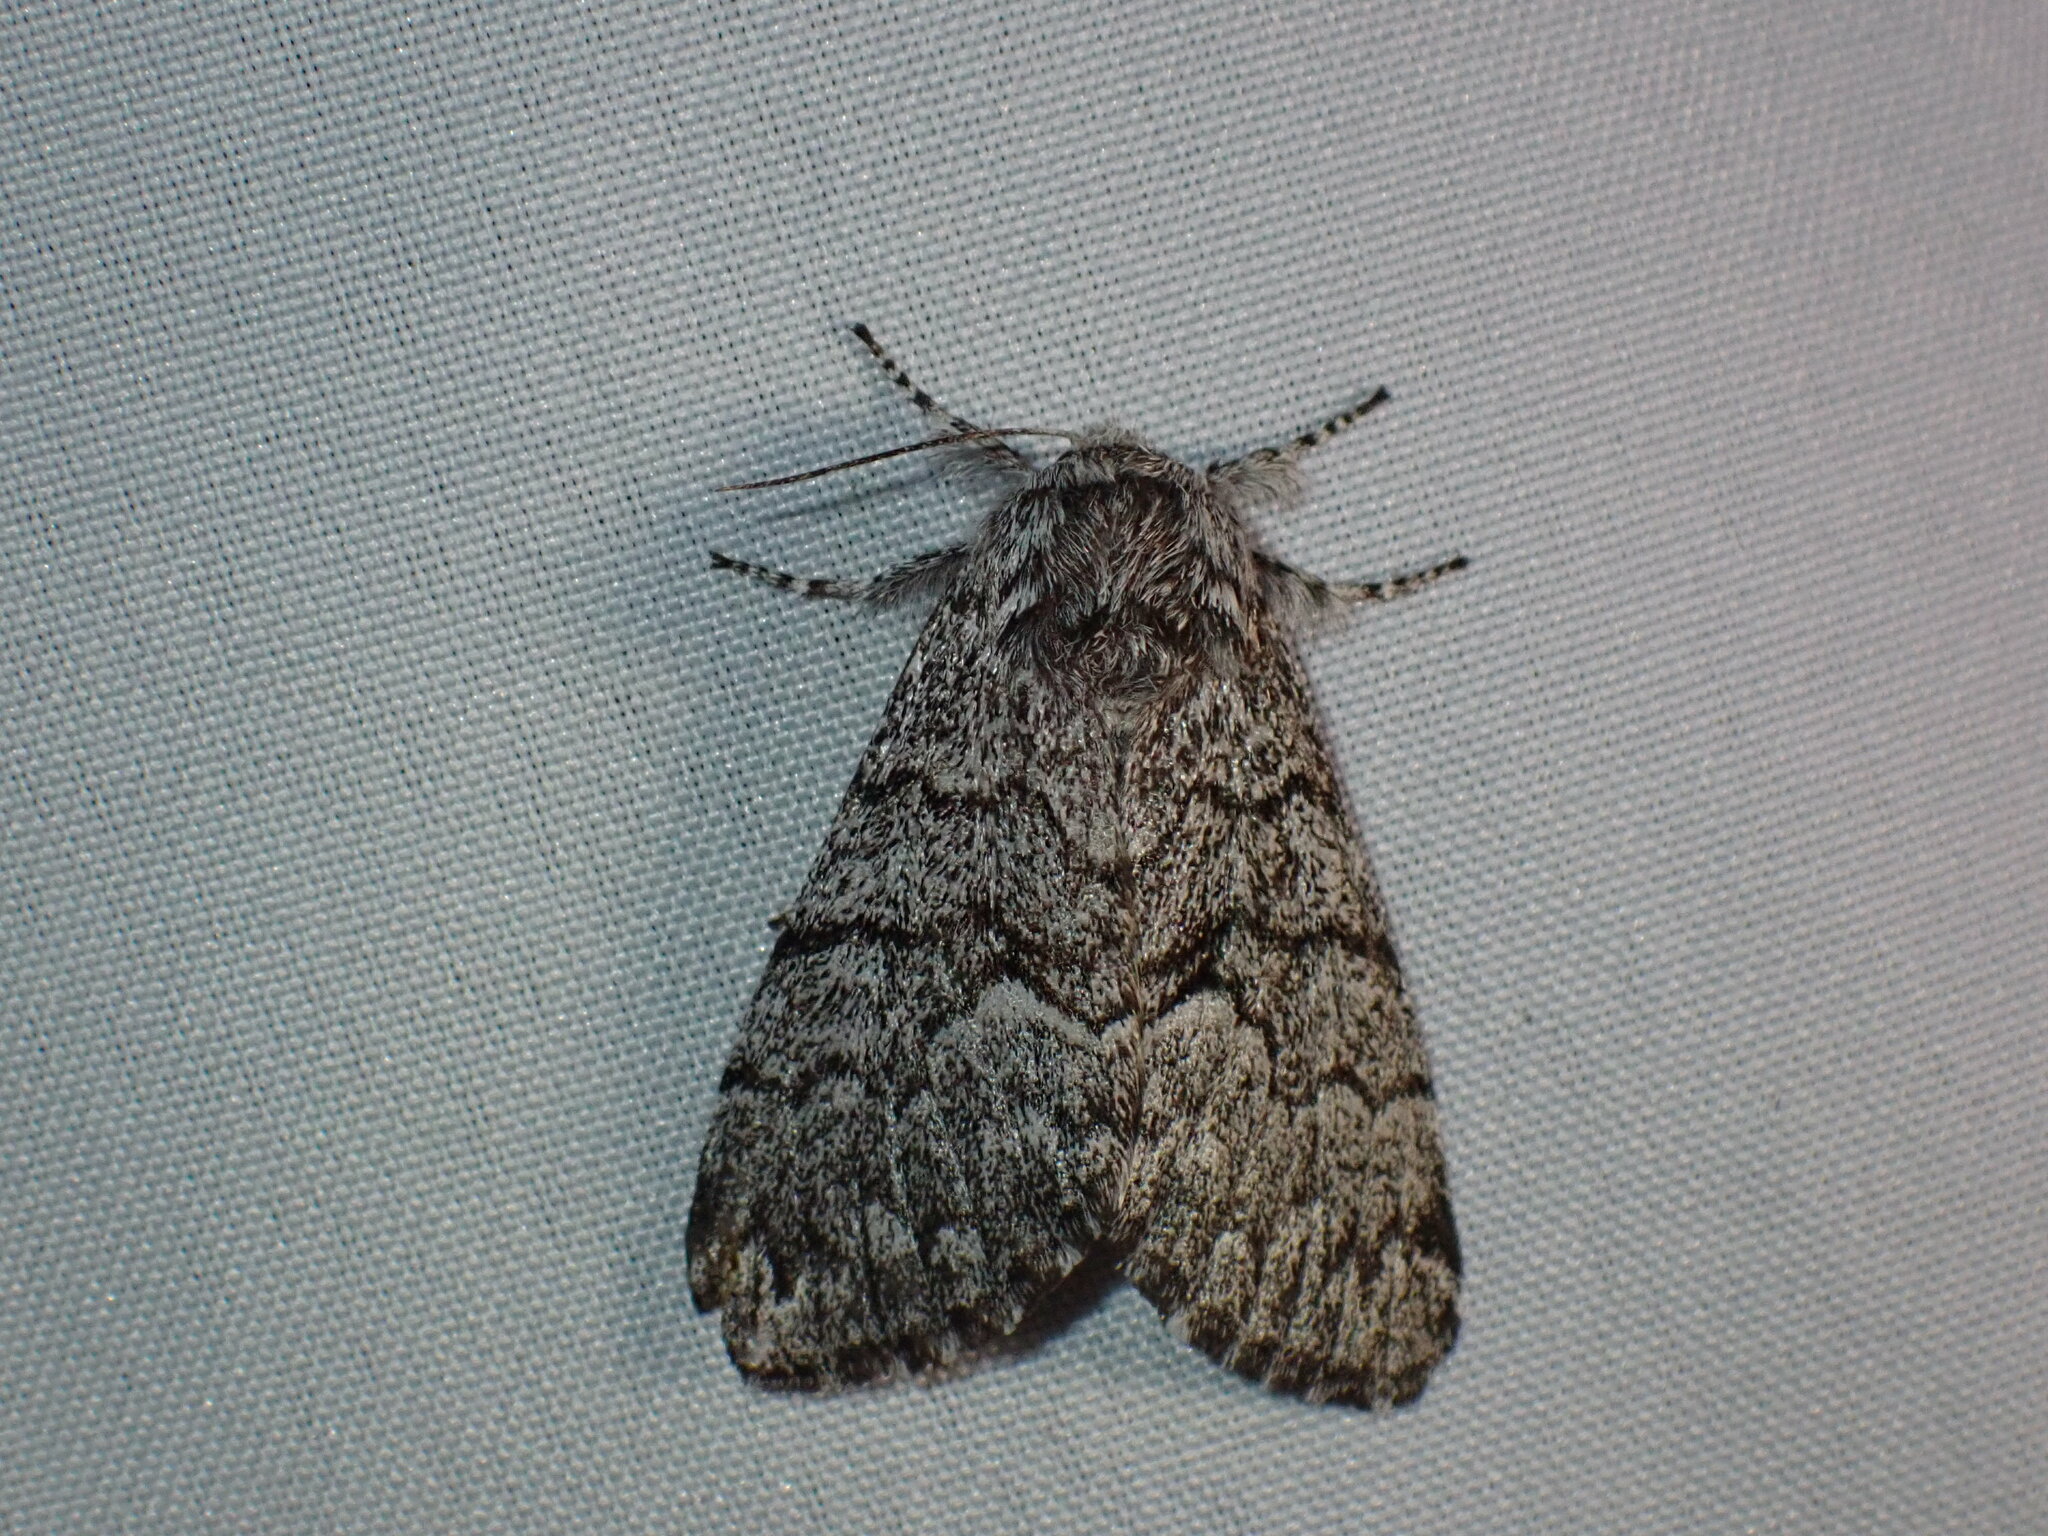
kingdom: Animalia
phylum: Arthropoda
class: Insecta
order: Lepidoptera
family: Noctuidae
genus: Panthea
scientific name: Panthea virginarius
